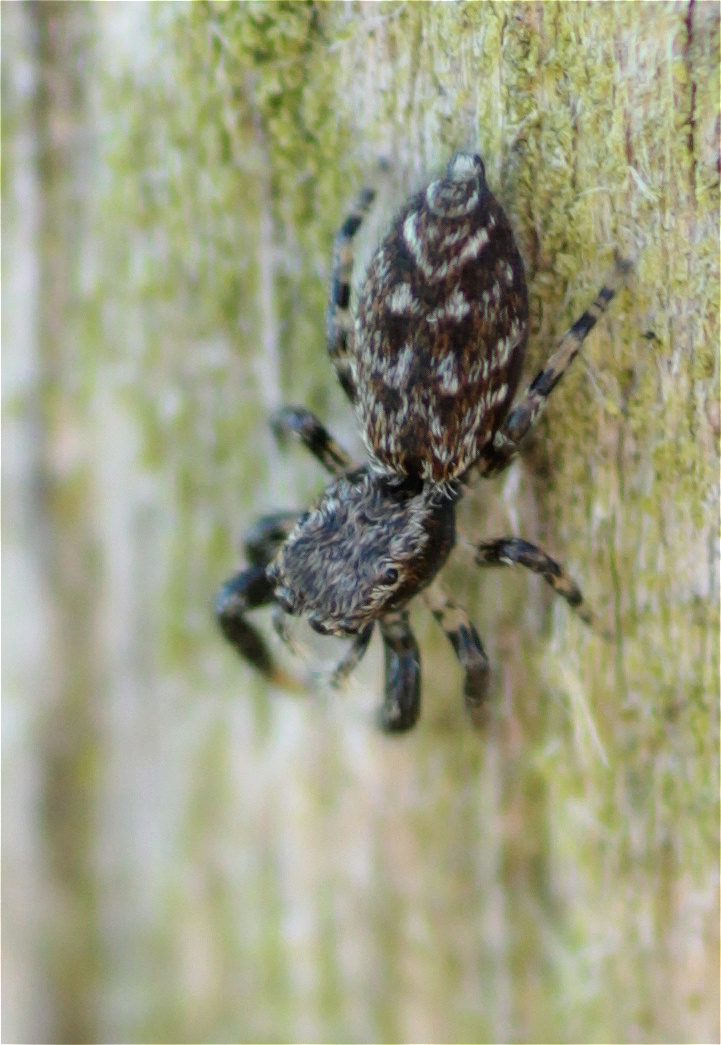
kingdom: Animalia
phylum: Arthropoda
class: Arachnida
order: Araneae
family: Salticidae
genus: Marpissa
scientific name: Marpissa muscosa
